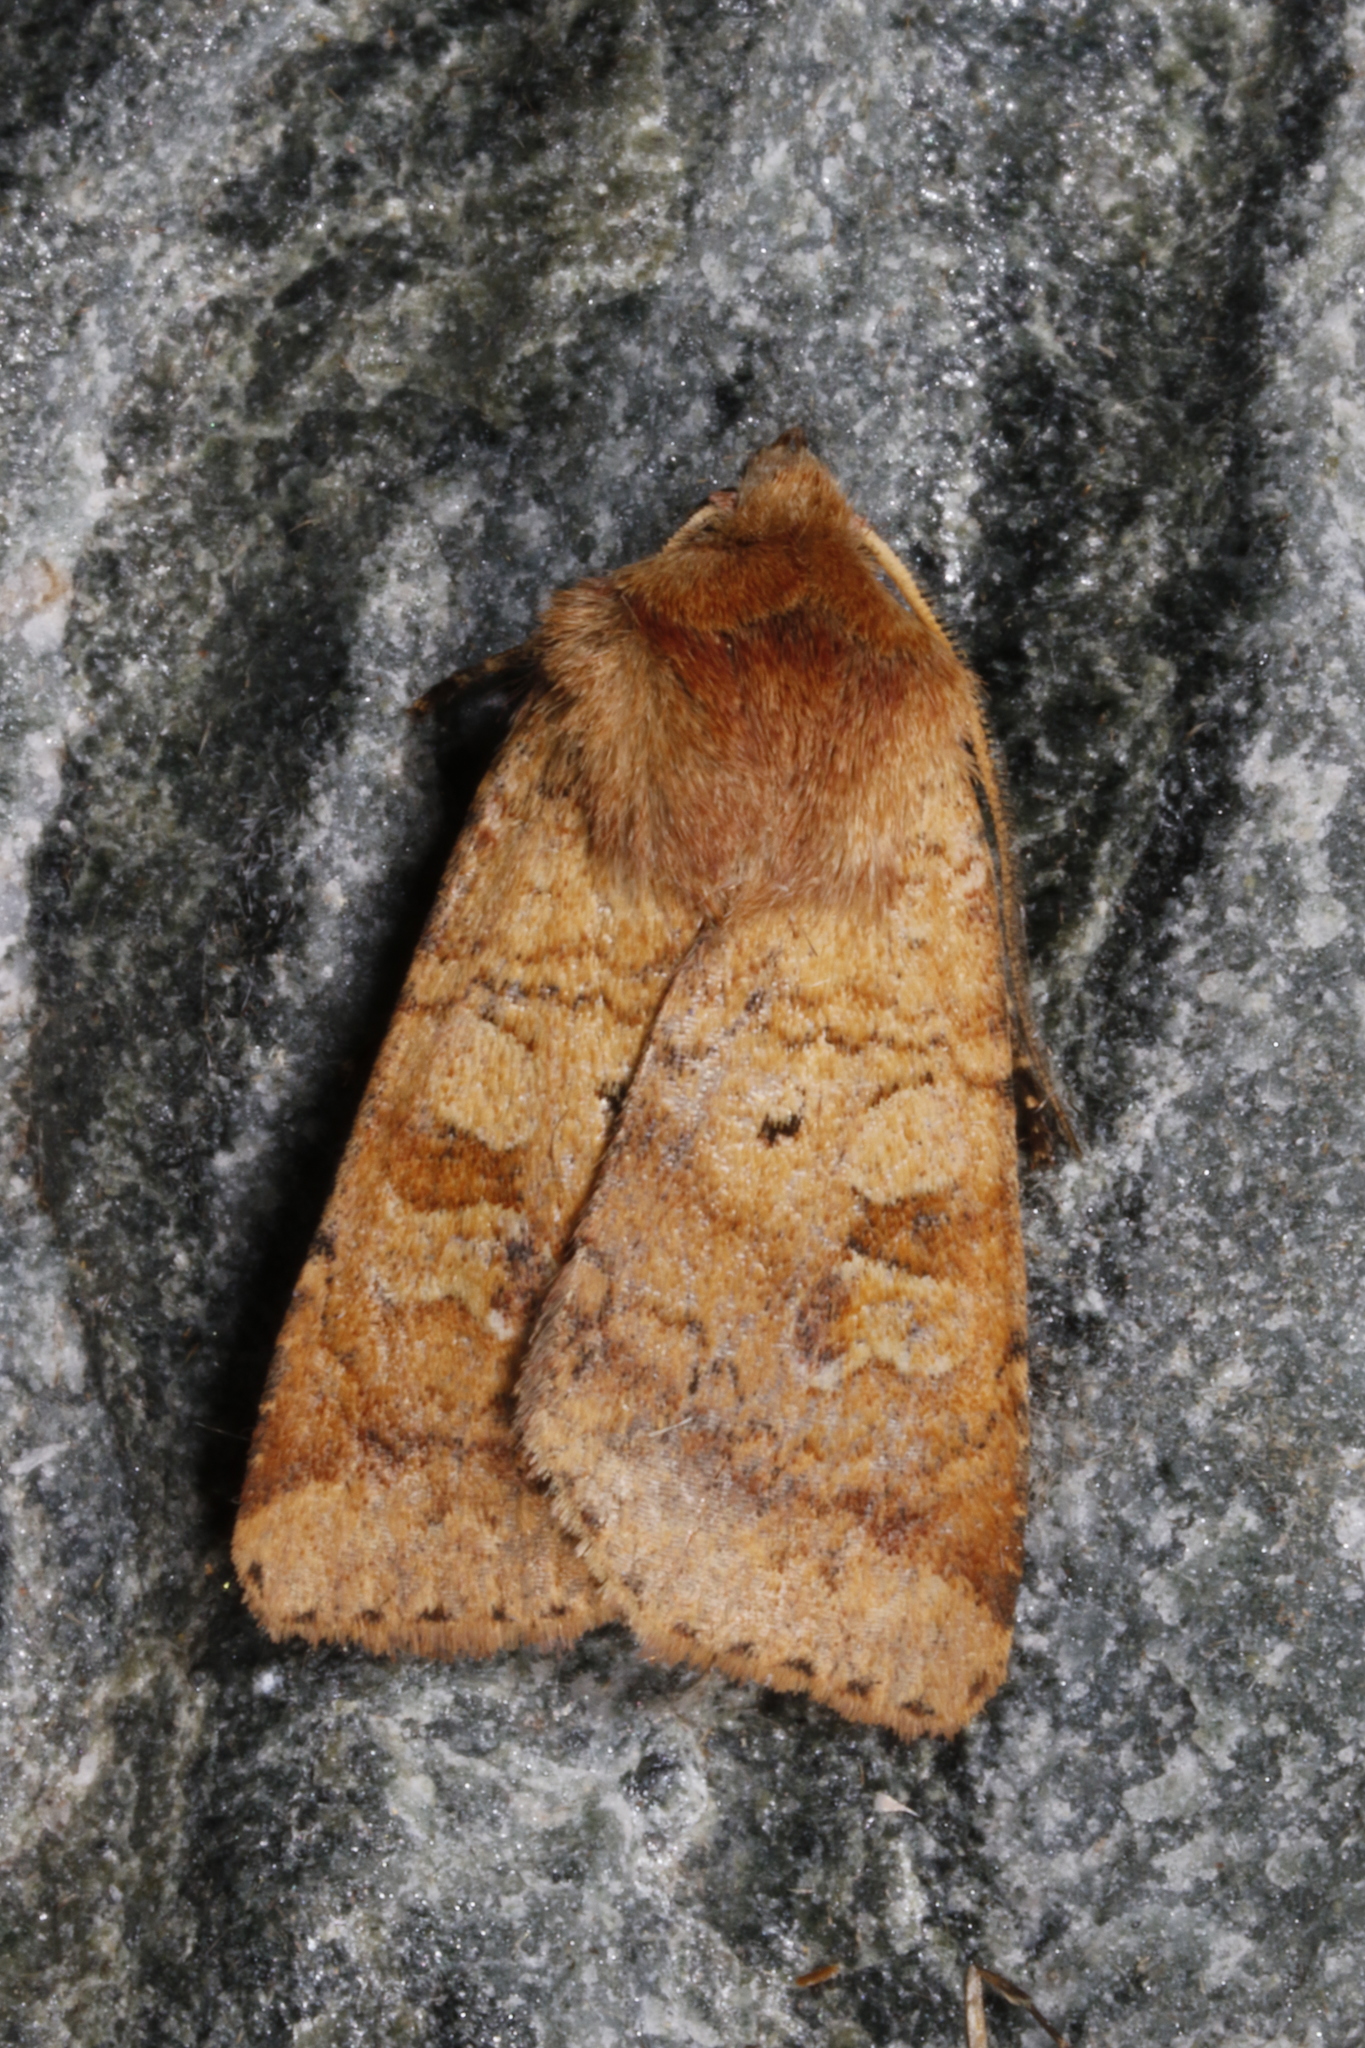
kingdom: Animalia
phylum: Arthropoda
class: Insecta
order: Lepidoptera
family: Noctuidae
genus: Diarsia
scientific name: Diarsia mendica
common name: Ingrailed clay
